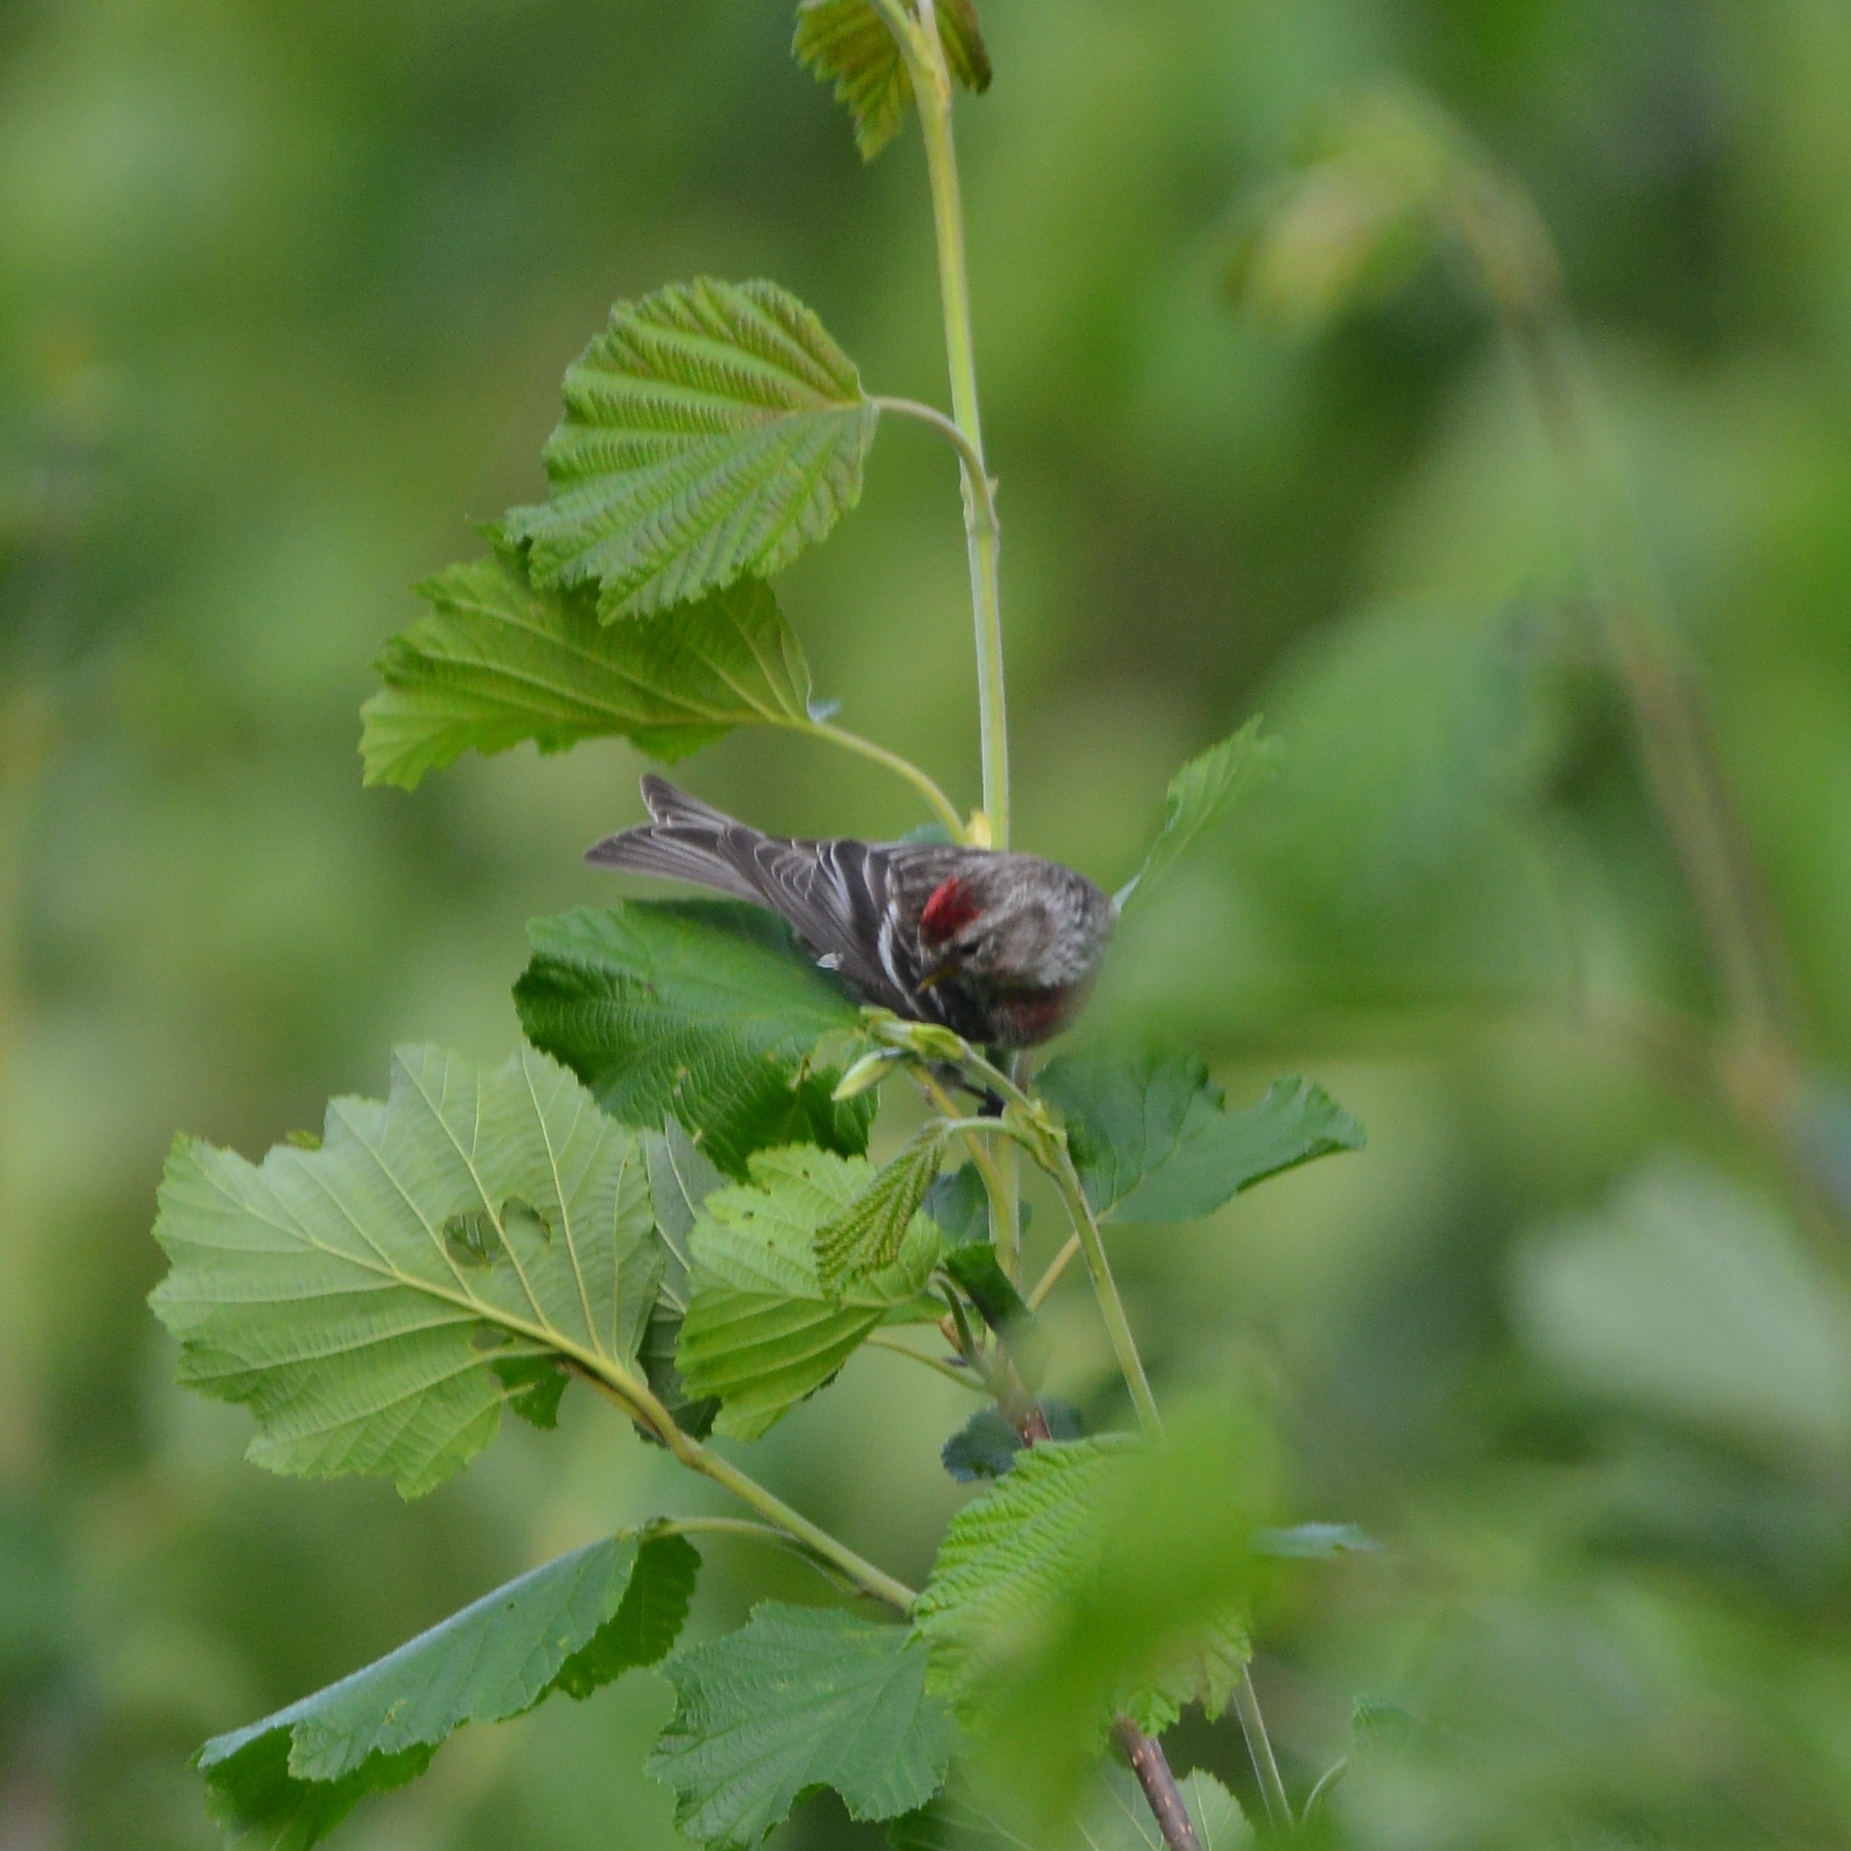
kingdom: Animalia
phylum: Chordata
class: Aves
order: Passeriformes
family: Fringillidae
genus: Acanthis
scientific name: Acanthis flammea
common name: Common redpoll
